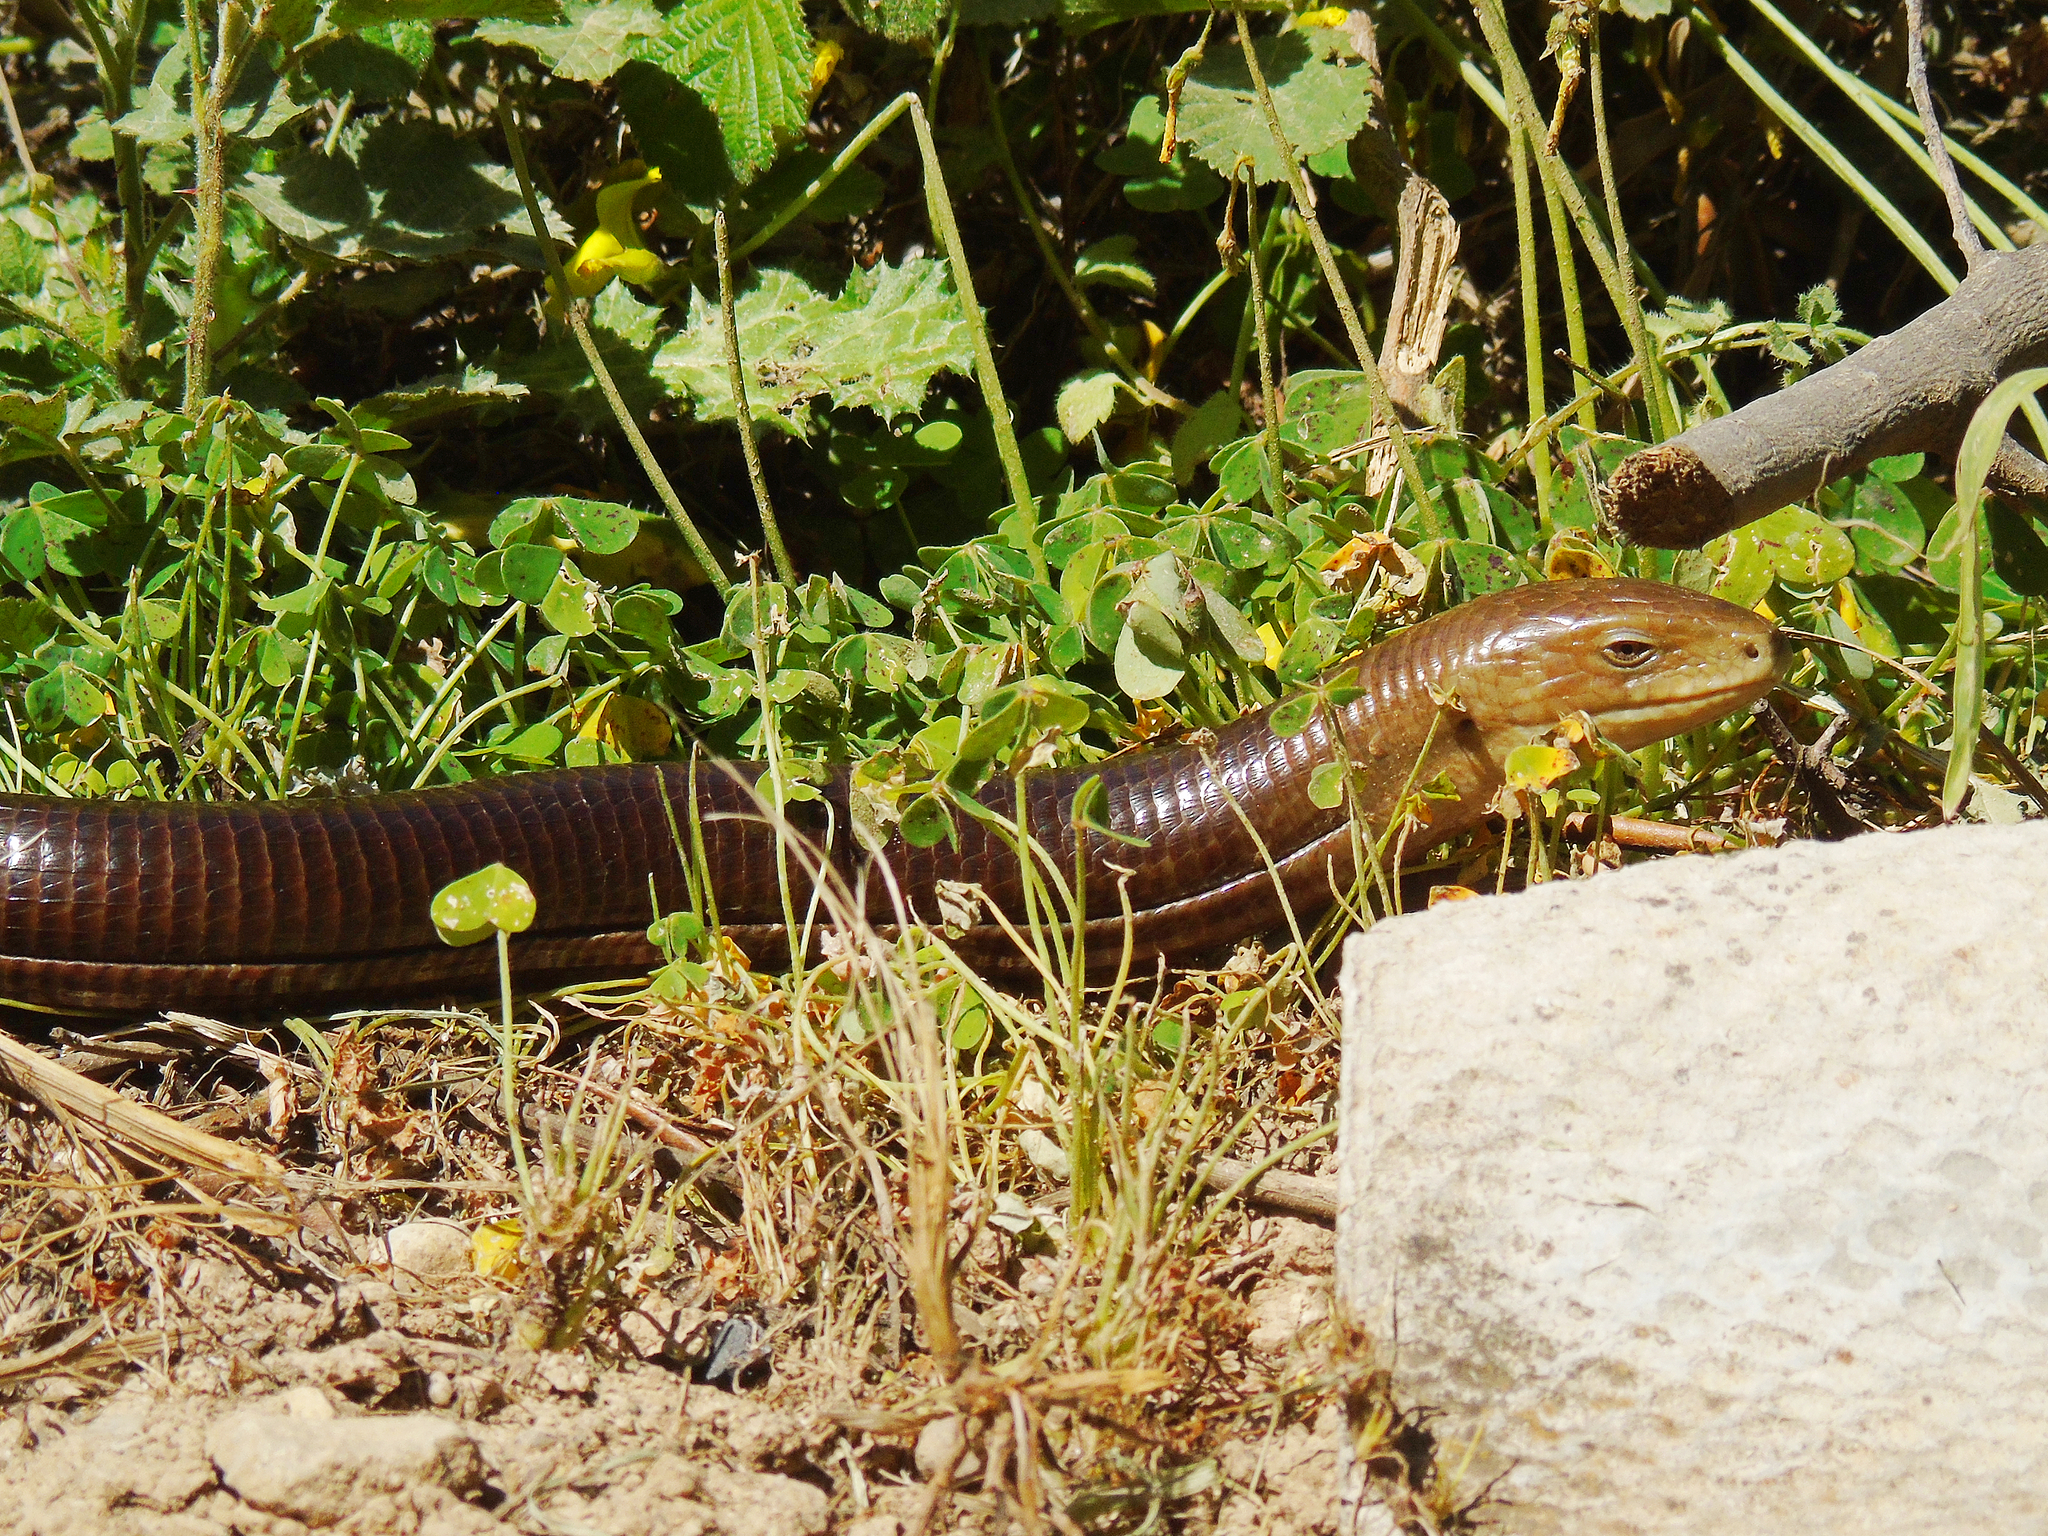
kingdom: Animalia
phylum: Chordata
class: Squamata
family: Anguidae
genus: Pseudopus
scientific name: Pseudopus apodus
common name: European glass lizard
